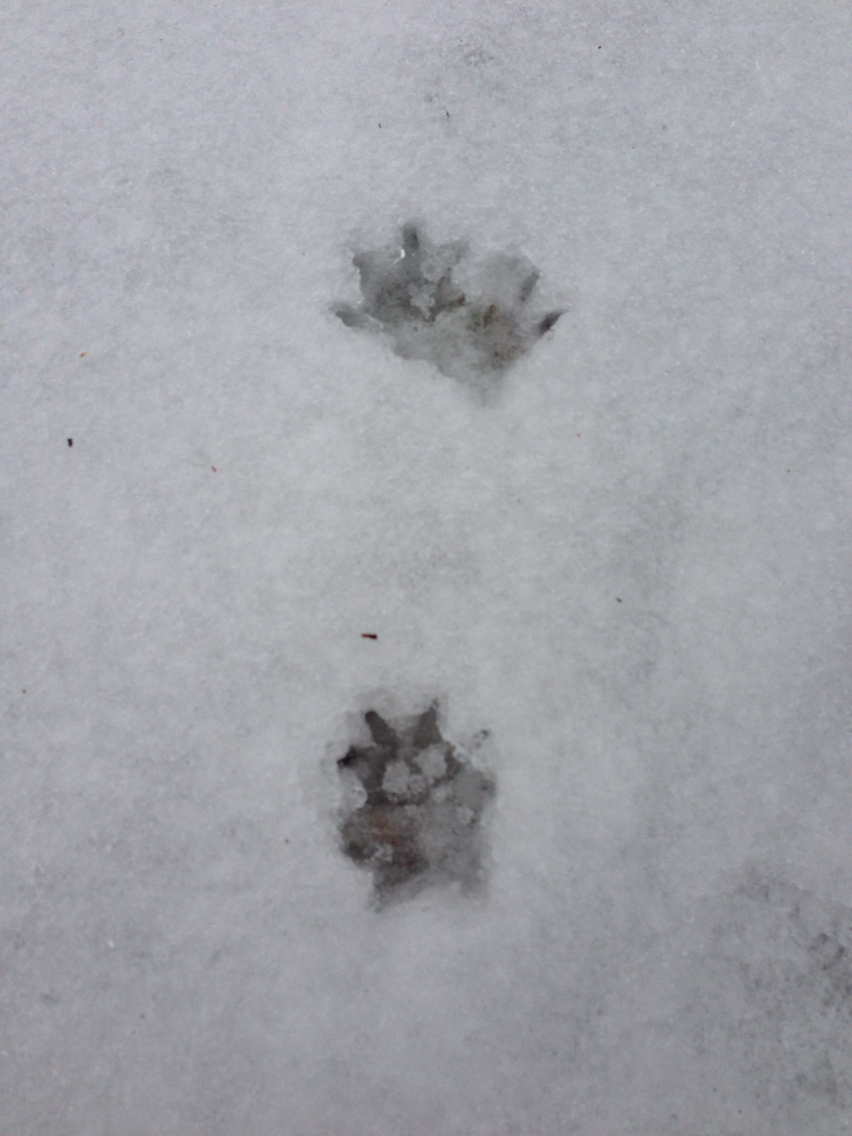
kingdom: Animalia
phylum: Chordata
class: Mammalia
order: Didelphimorphia
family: Didelphidae
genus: Didelphis
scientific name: Didelphis virginiana
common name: Virginia opossum
